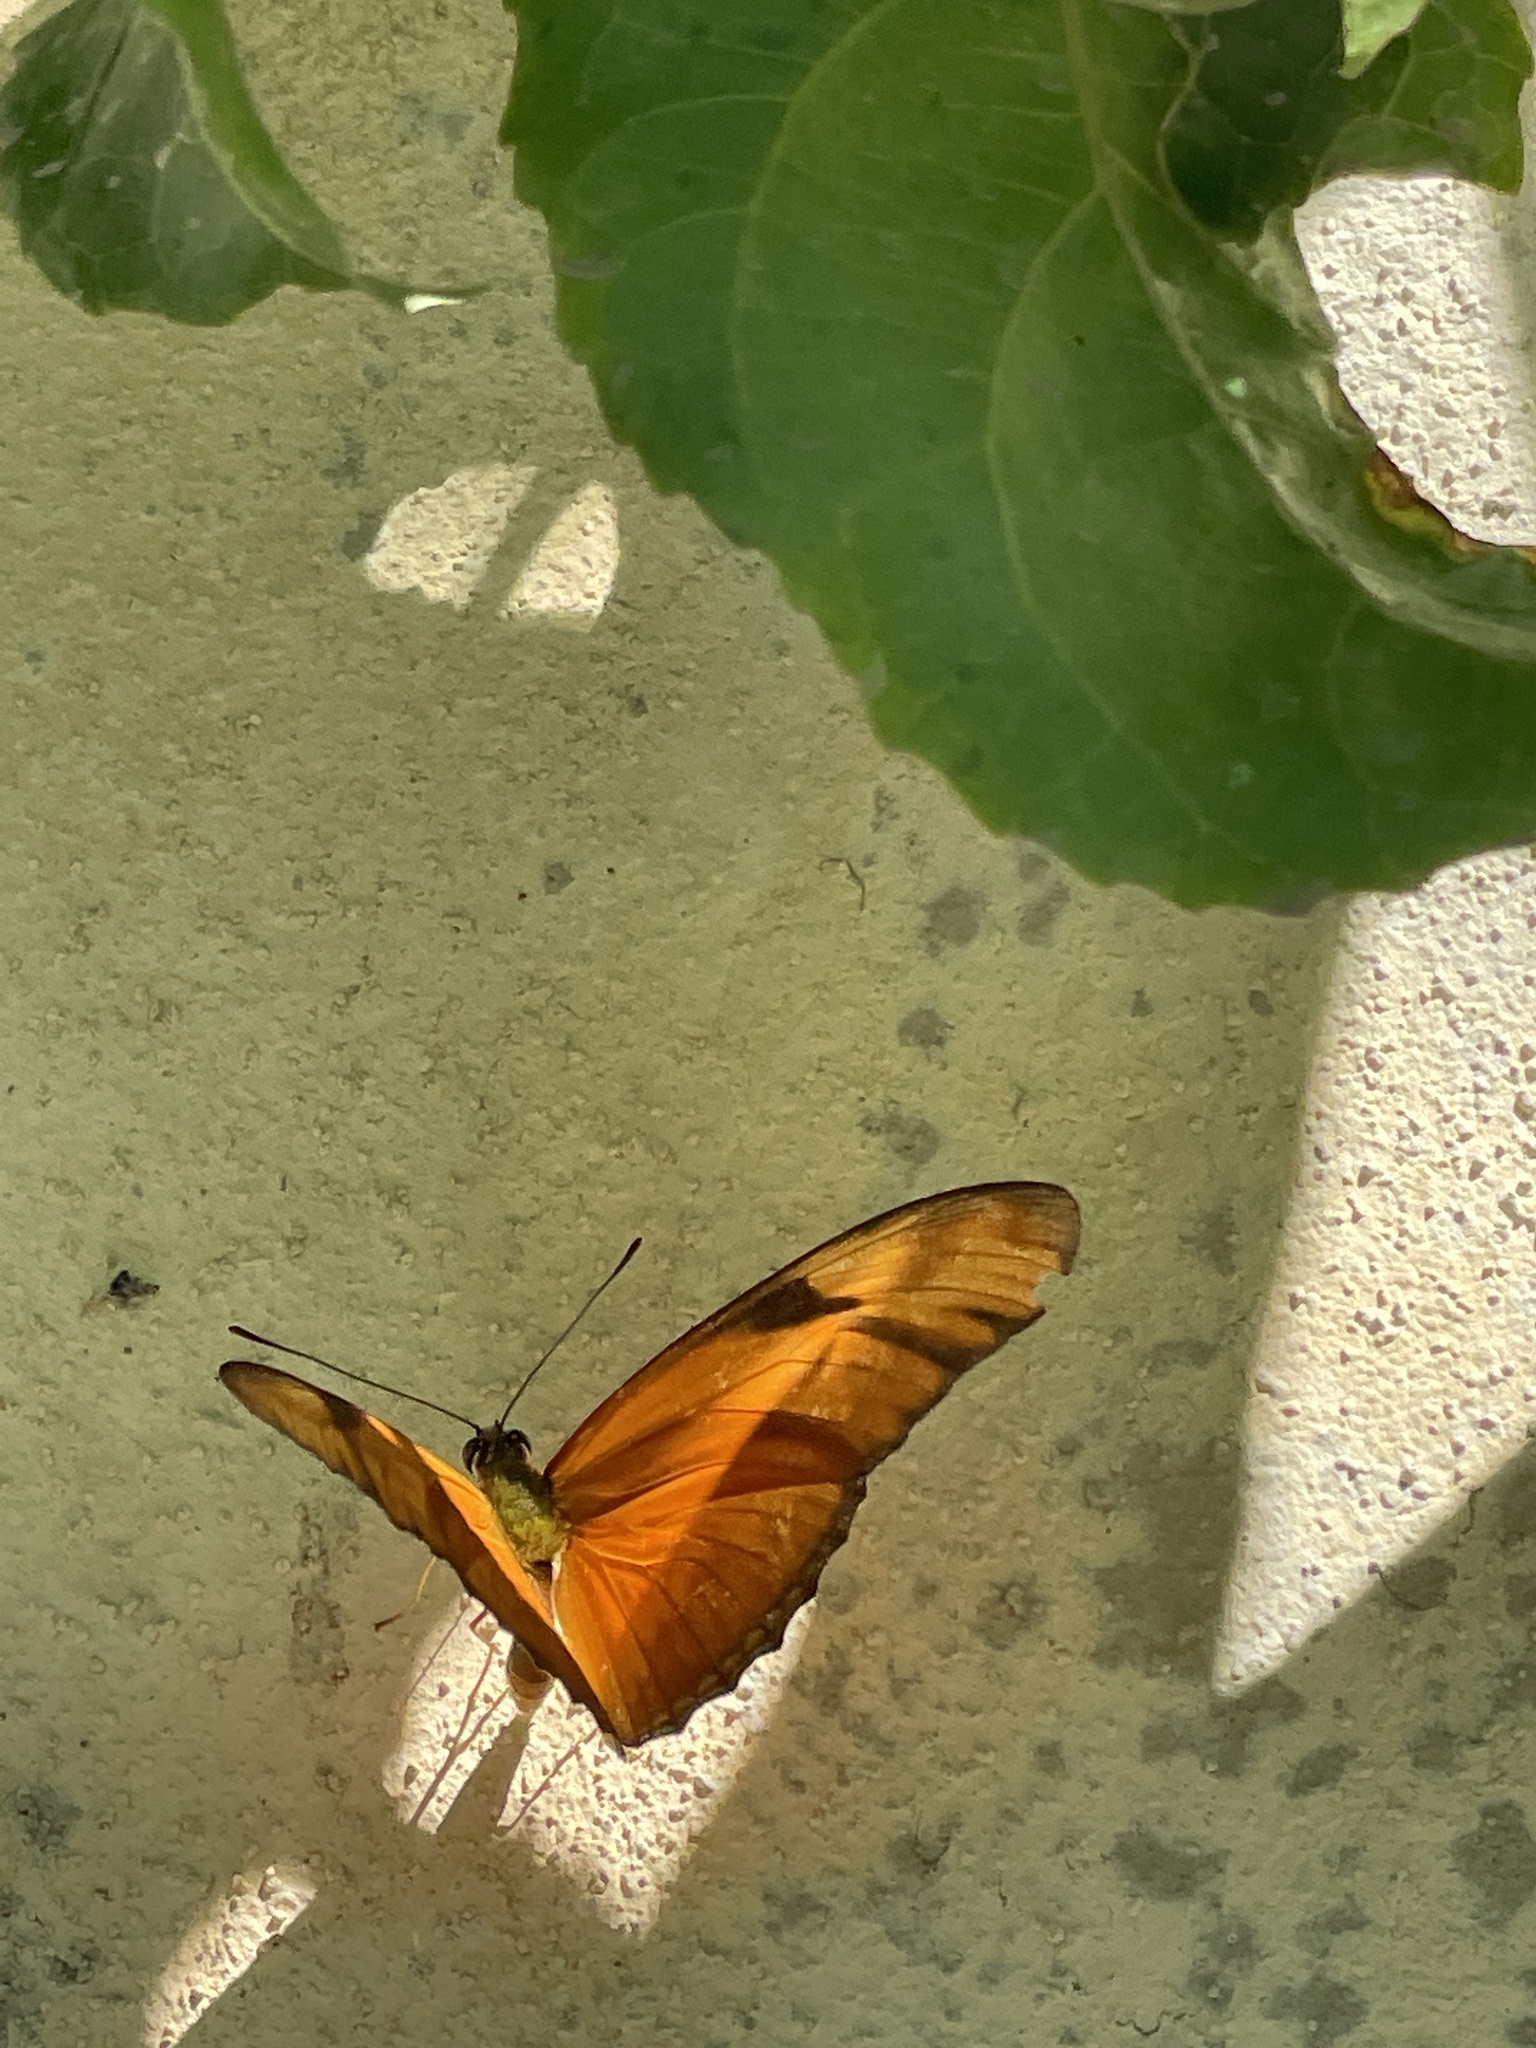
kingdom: Animalia
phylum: Arthropoda
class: Insecta
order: Lepidoptera
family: Nymphalidae
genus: Dryas
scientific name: Dryas iulia
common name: Flambeau
